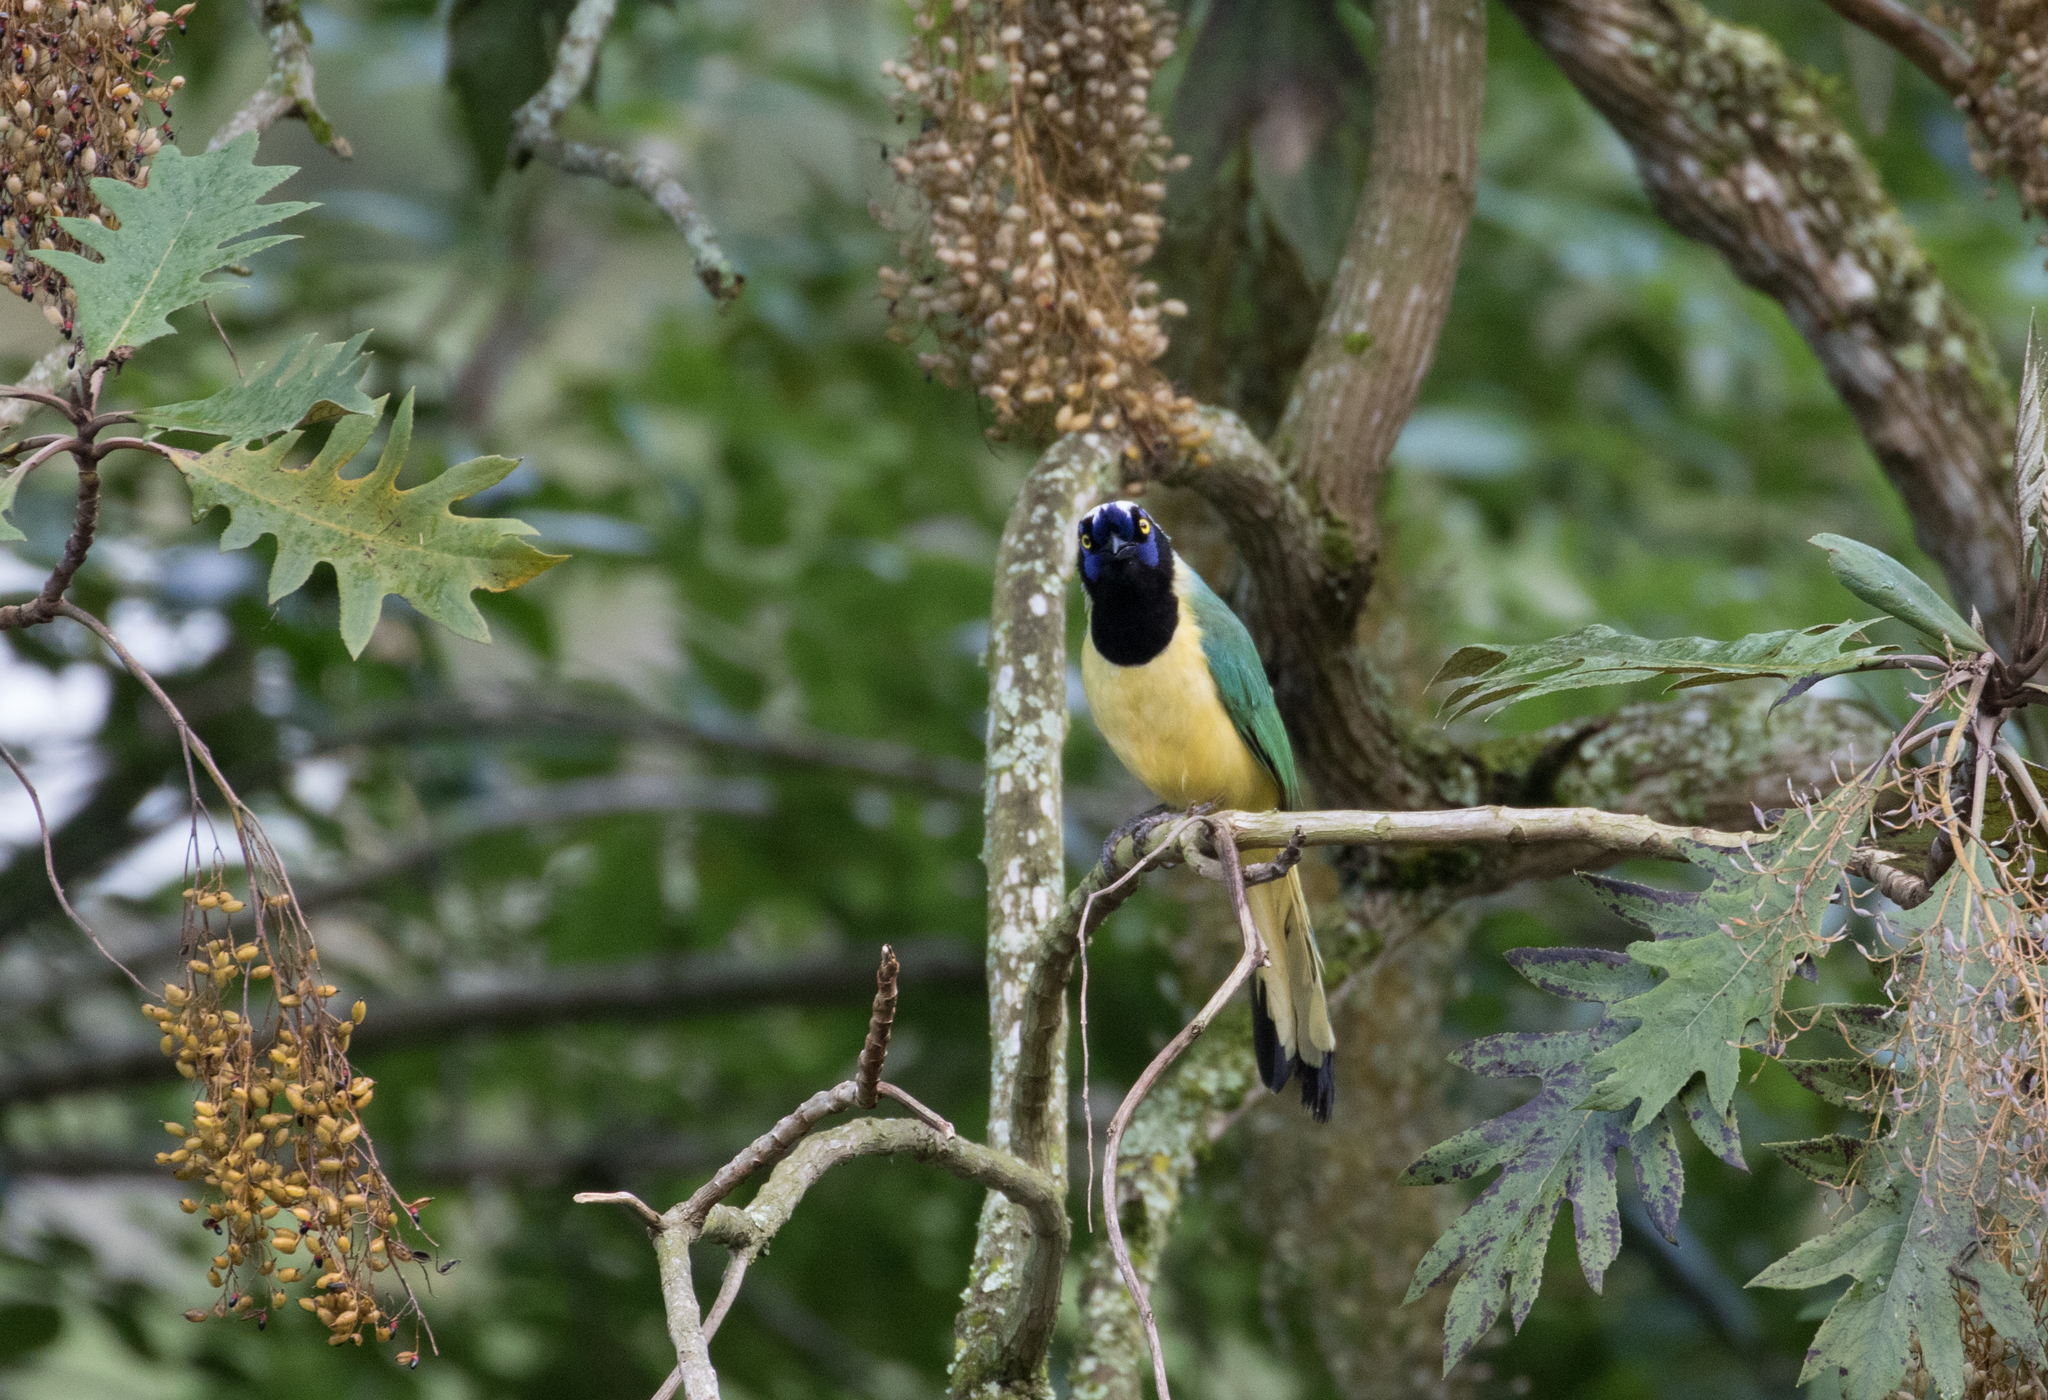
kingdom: Animalia
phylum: Chordata
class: Aves
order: Passeriformes
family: Corvidae
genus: Cyanocorax
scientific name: Cyanocorax yncas
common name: Green jay
